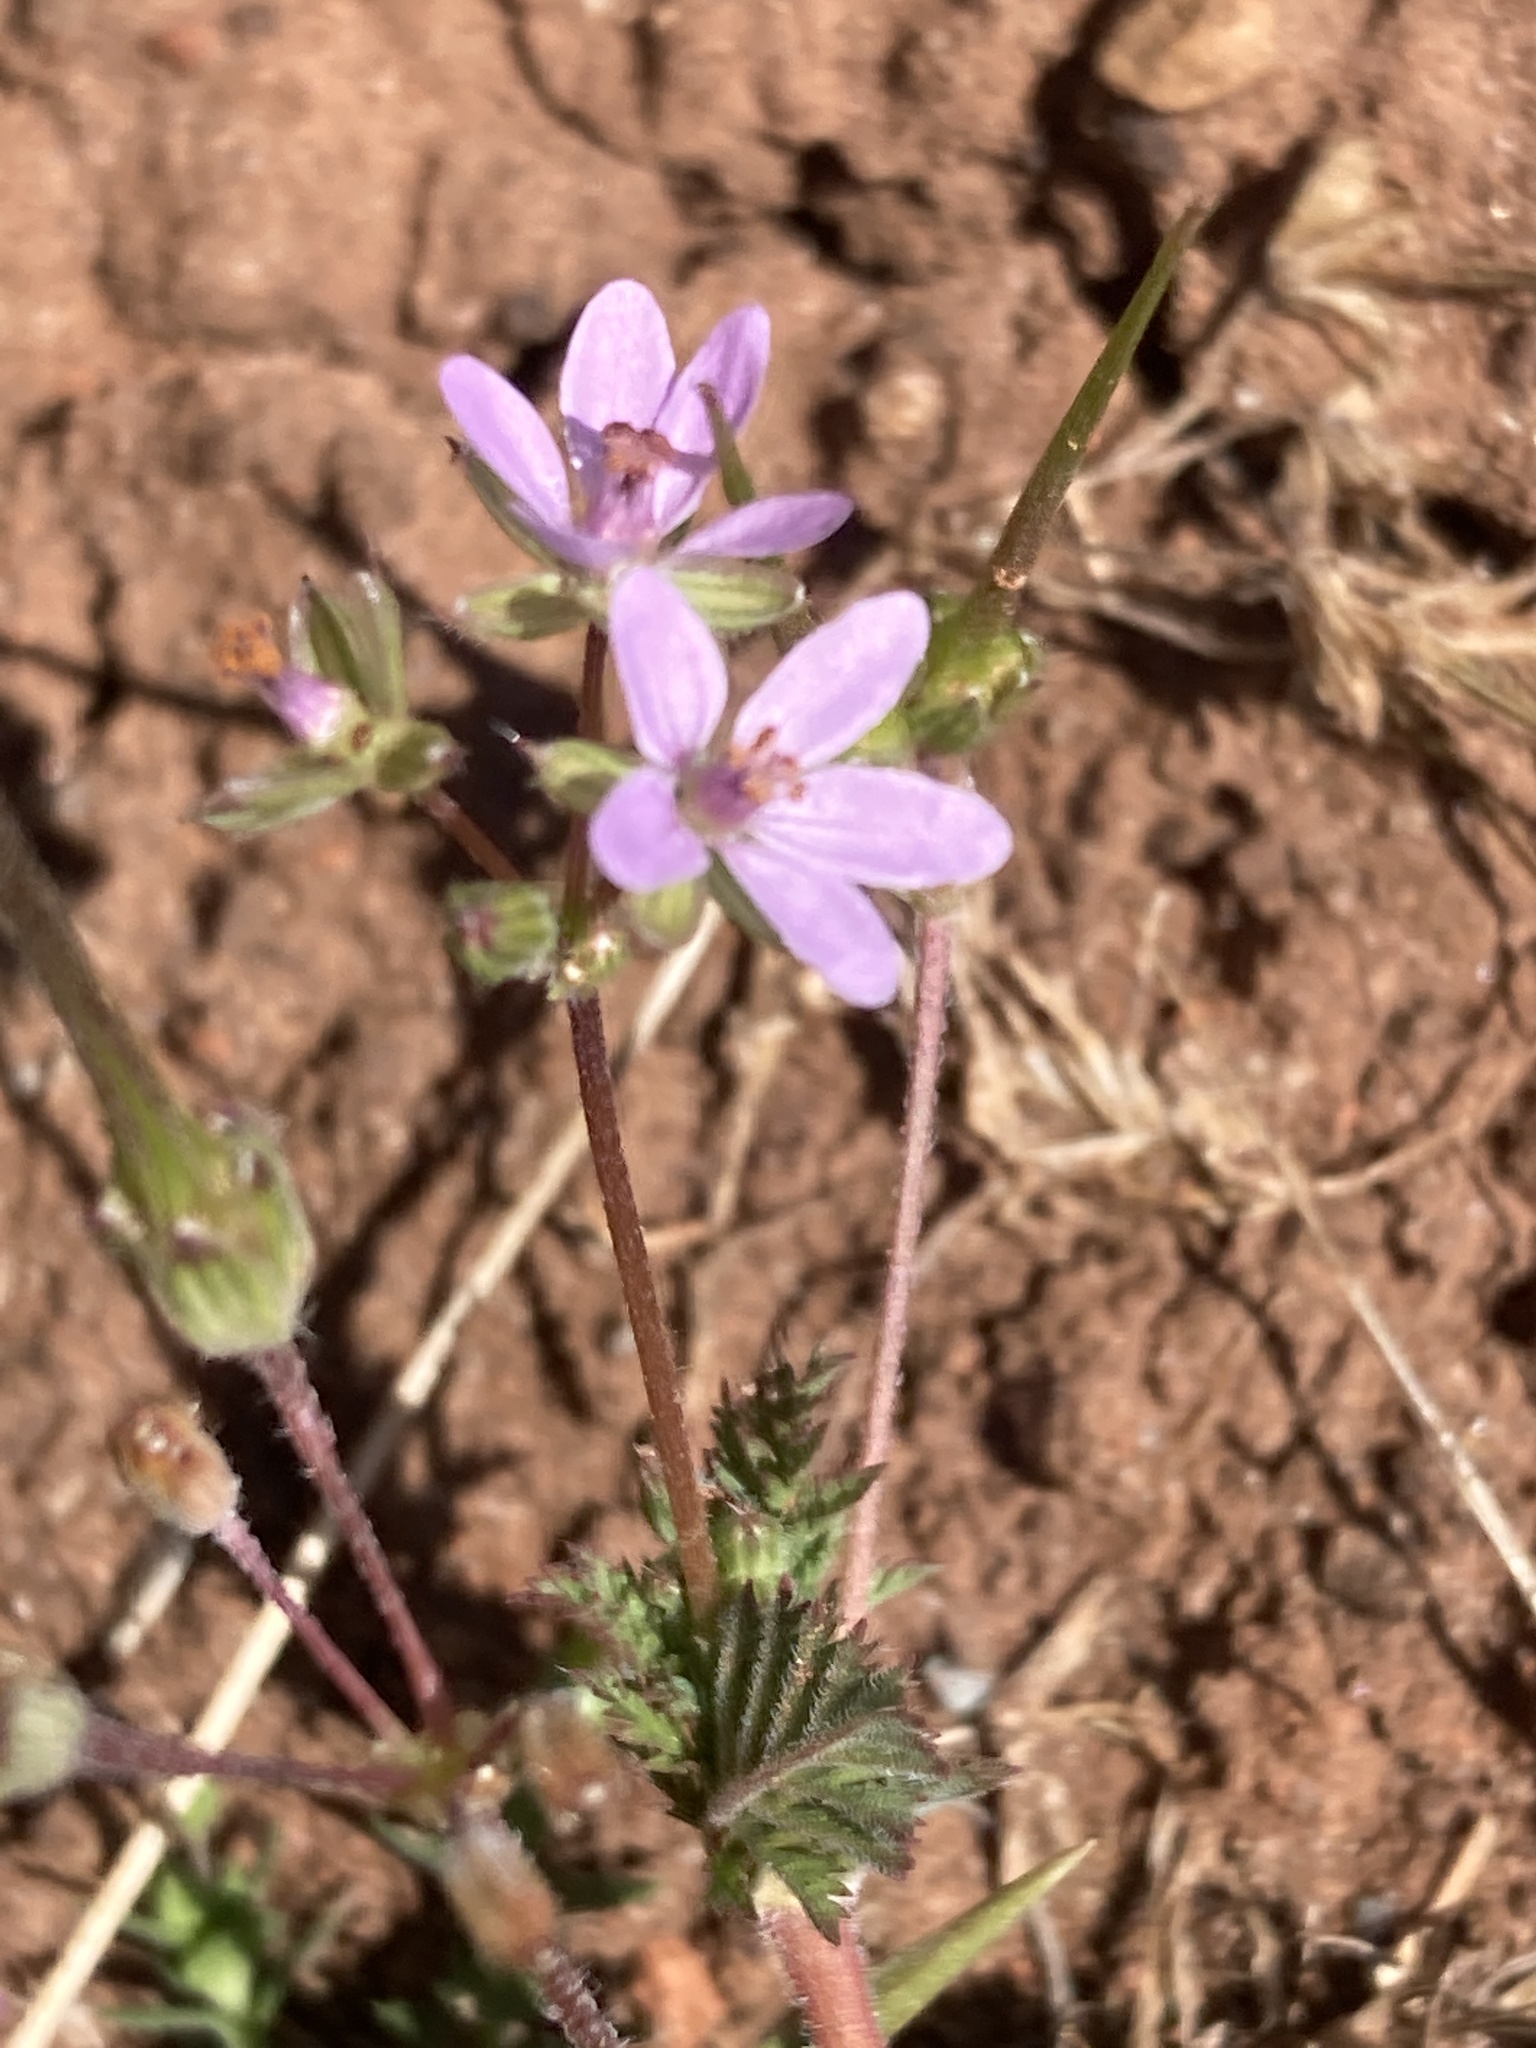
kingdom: Plantae
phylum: Tracheophyta
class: Magnoliopsida
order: Geraniales
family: Geraniaceae
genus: Erodium
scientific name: Erodium cicutarium
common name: Common stork's-bill
